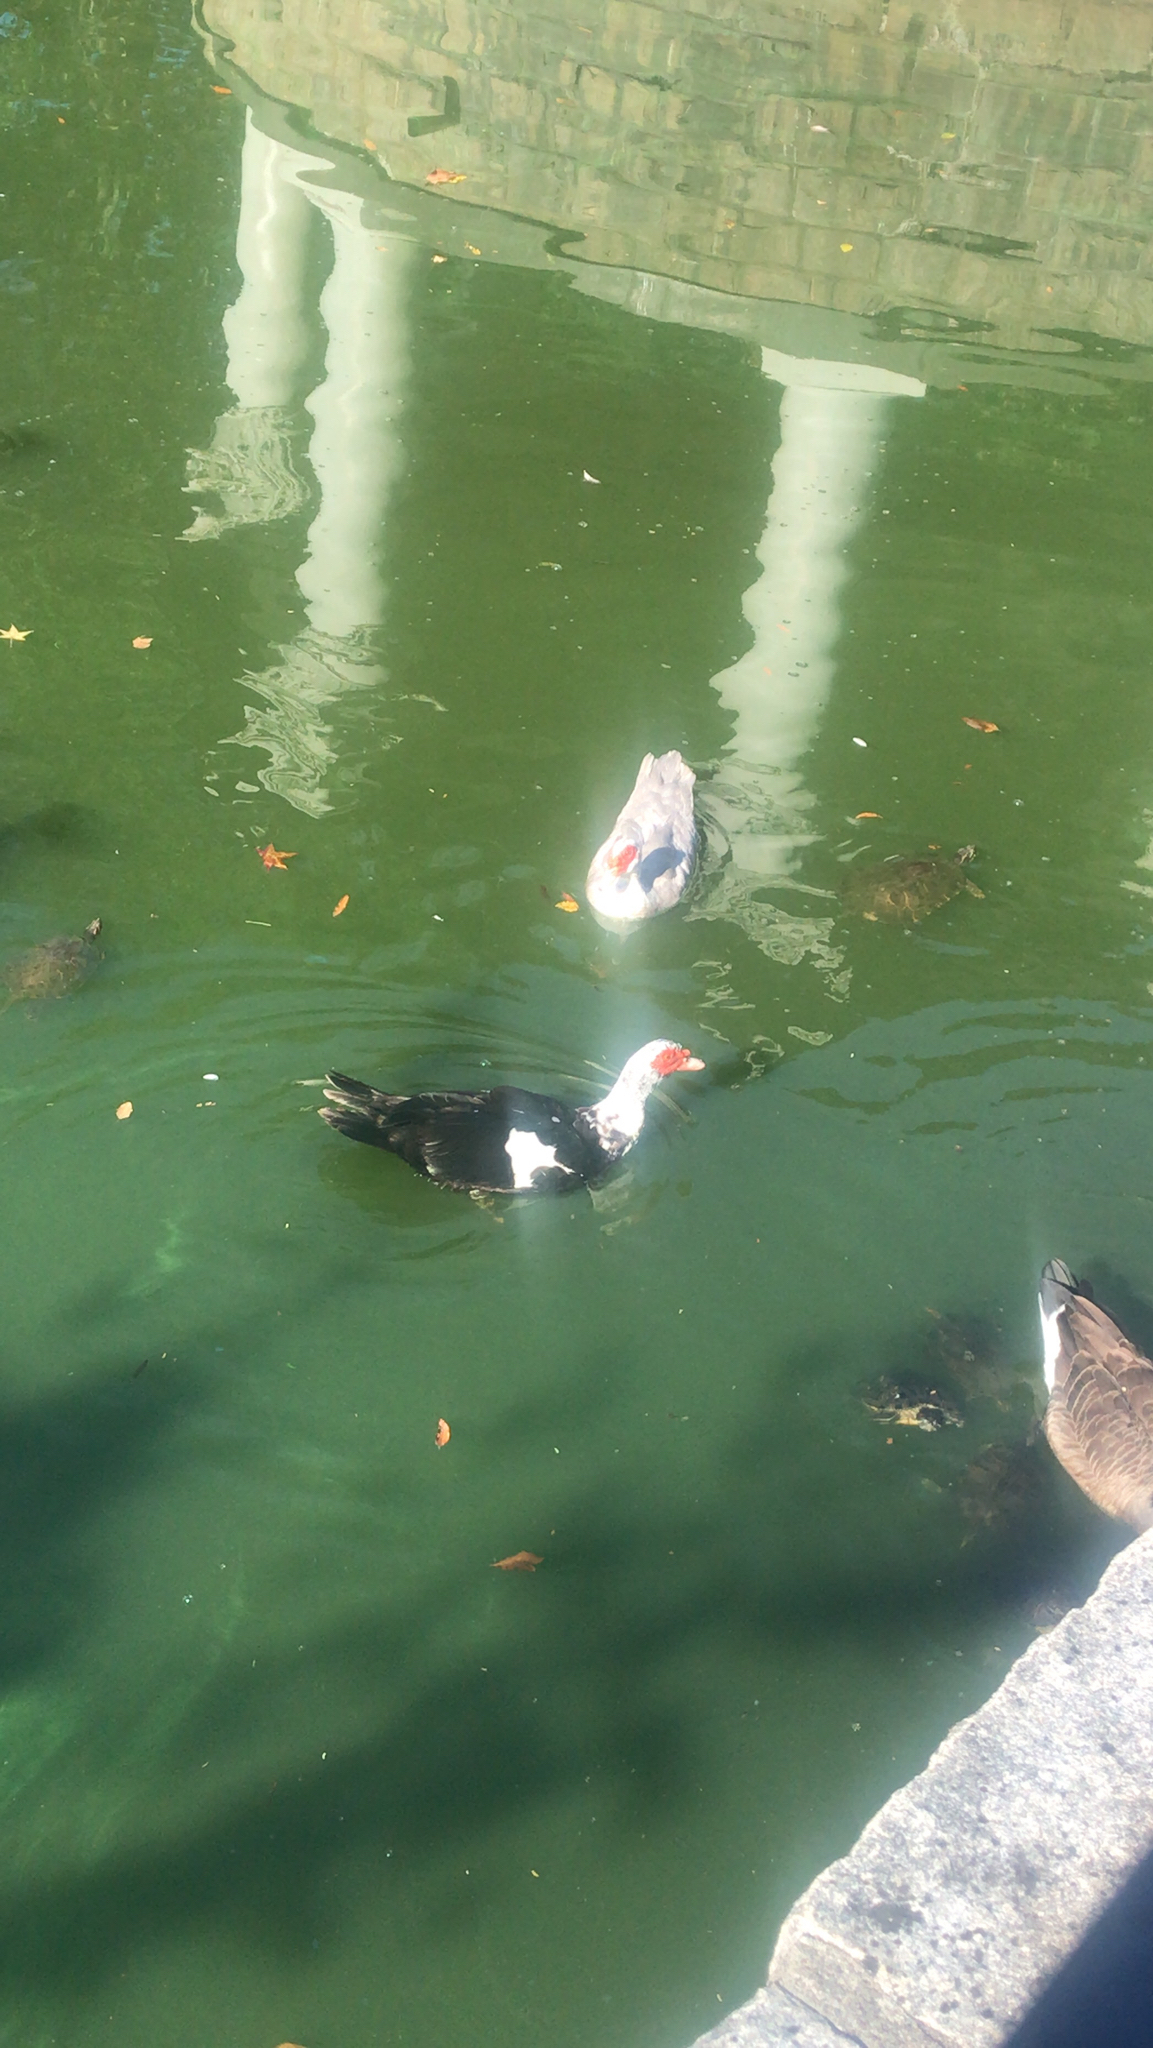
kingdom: Animalia
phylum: Chordata
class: Aves
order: Anseriformes
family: Anatidae
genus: Cairina
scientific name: Cairina moschata
